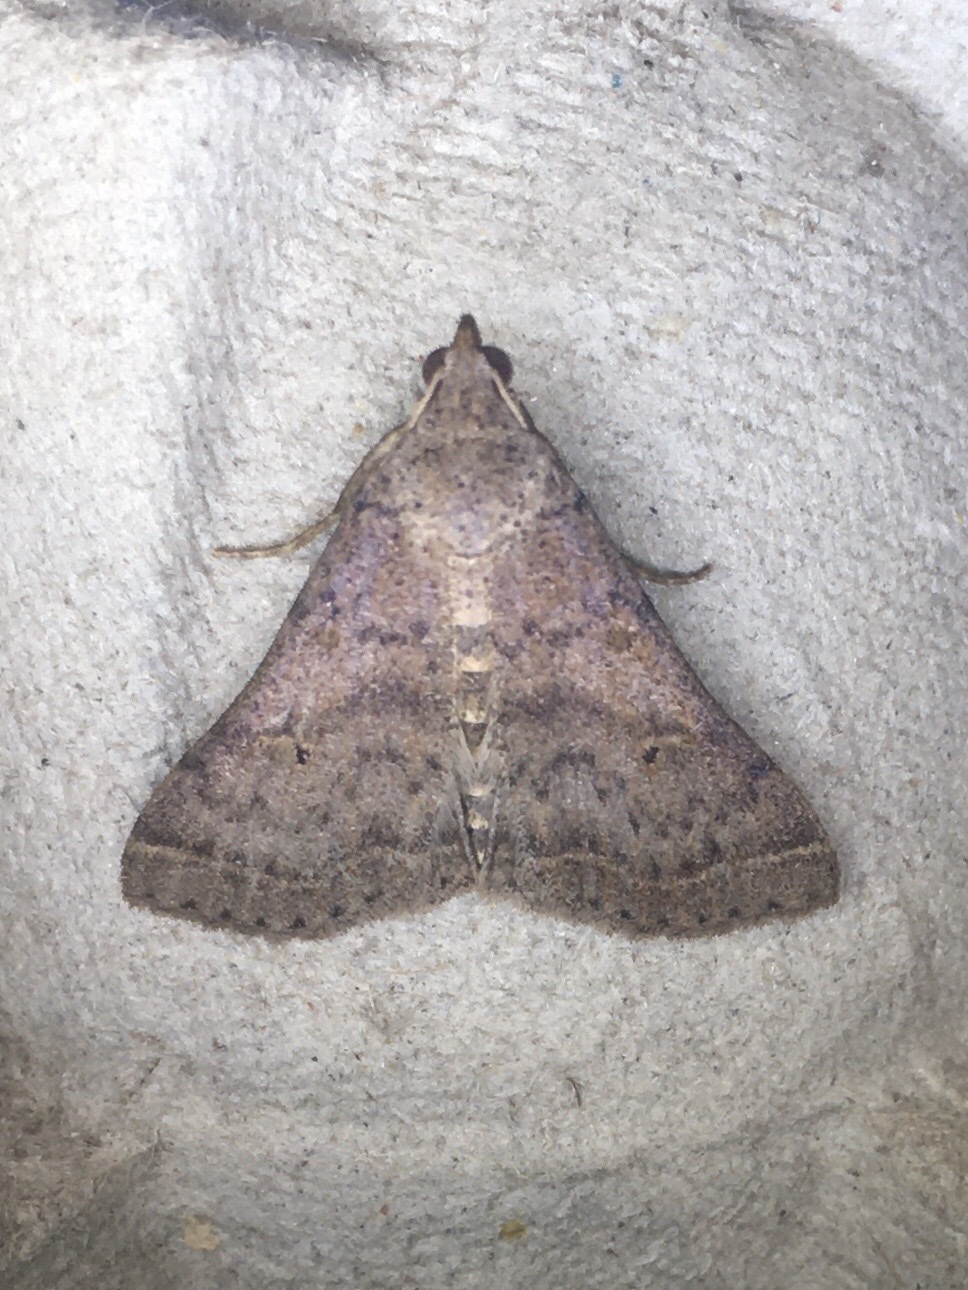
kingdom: Animalia
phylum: Arthropoda
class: Insecta
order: Lepidoptera
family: Erebidae
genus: Bleptina
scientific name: Bleptina caradrinalis
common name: Bent-winged owlet
